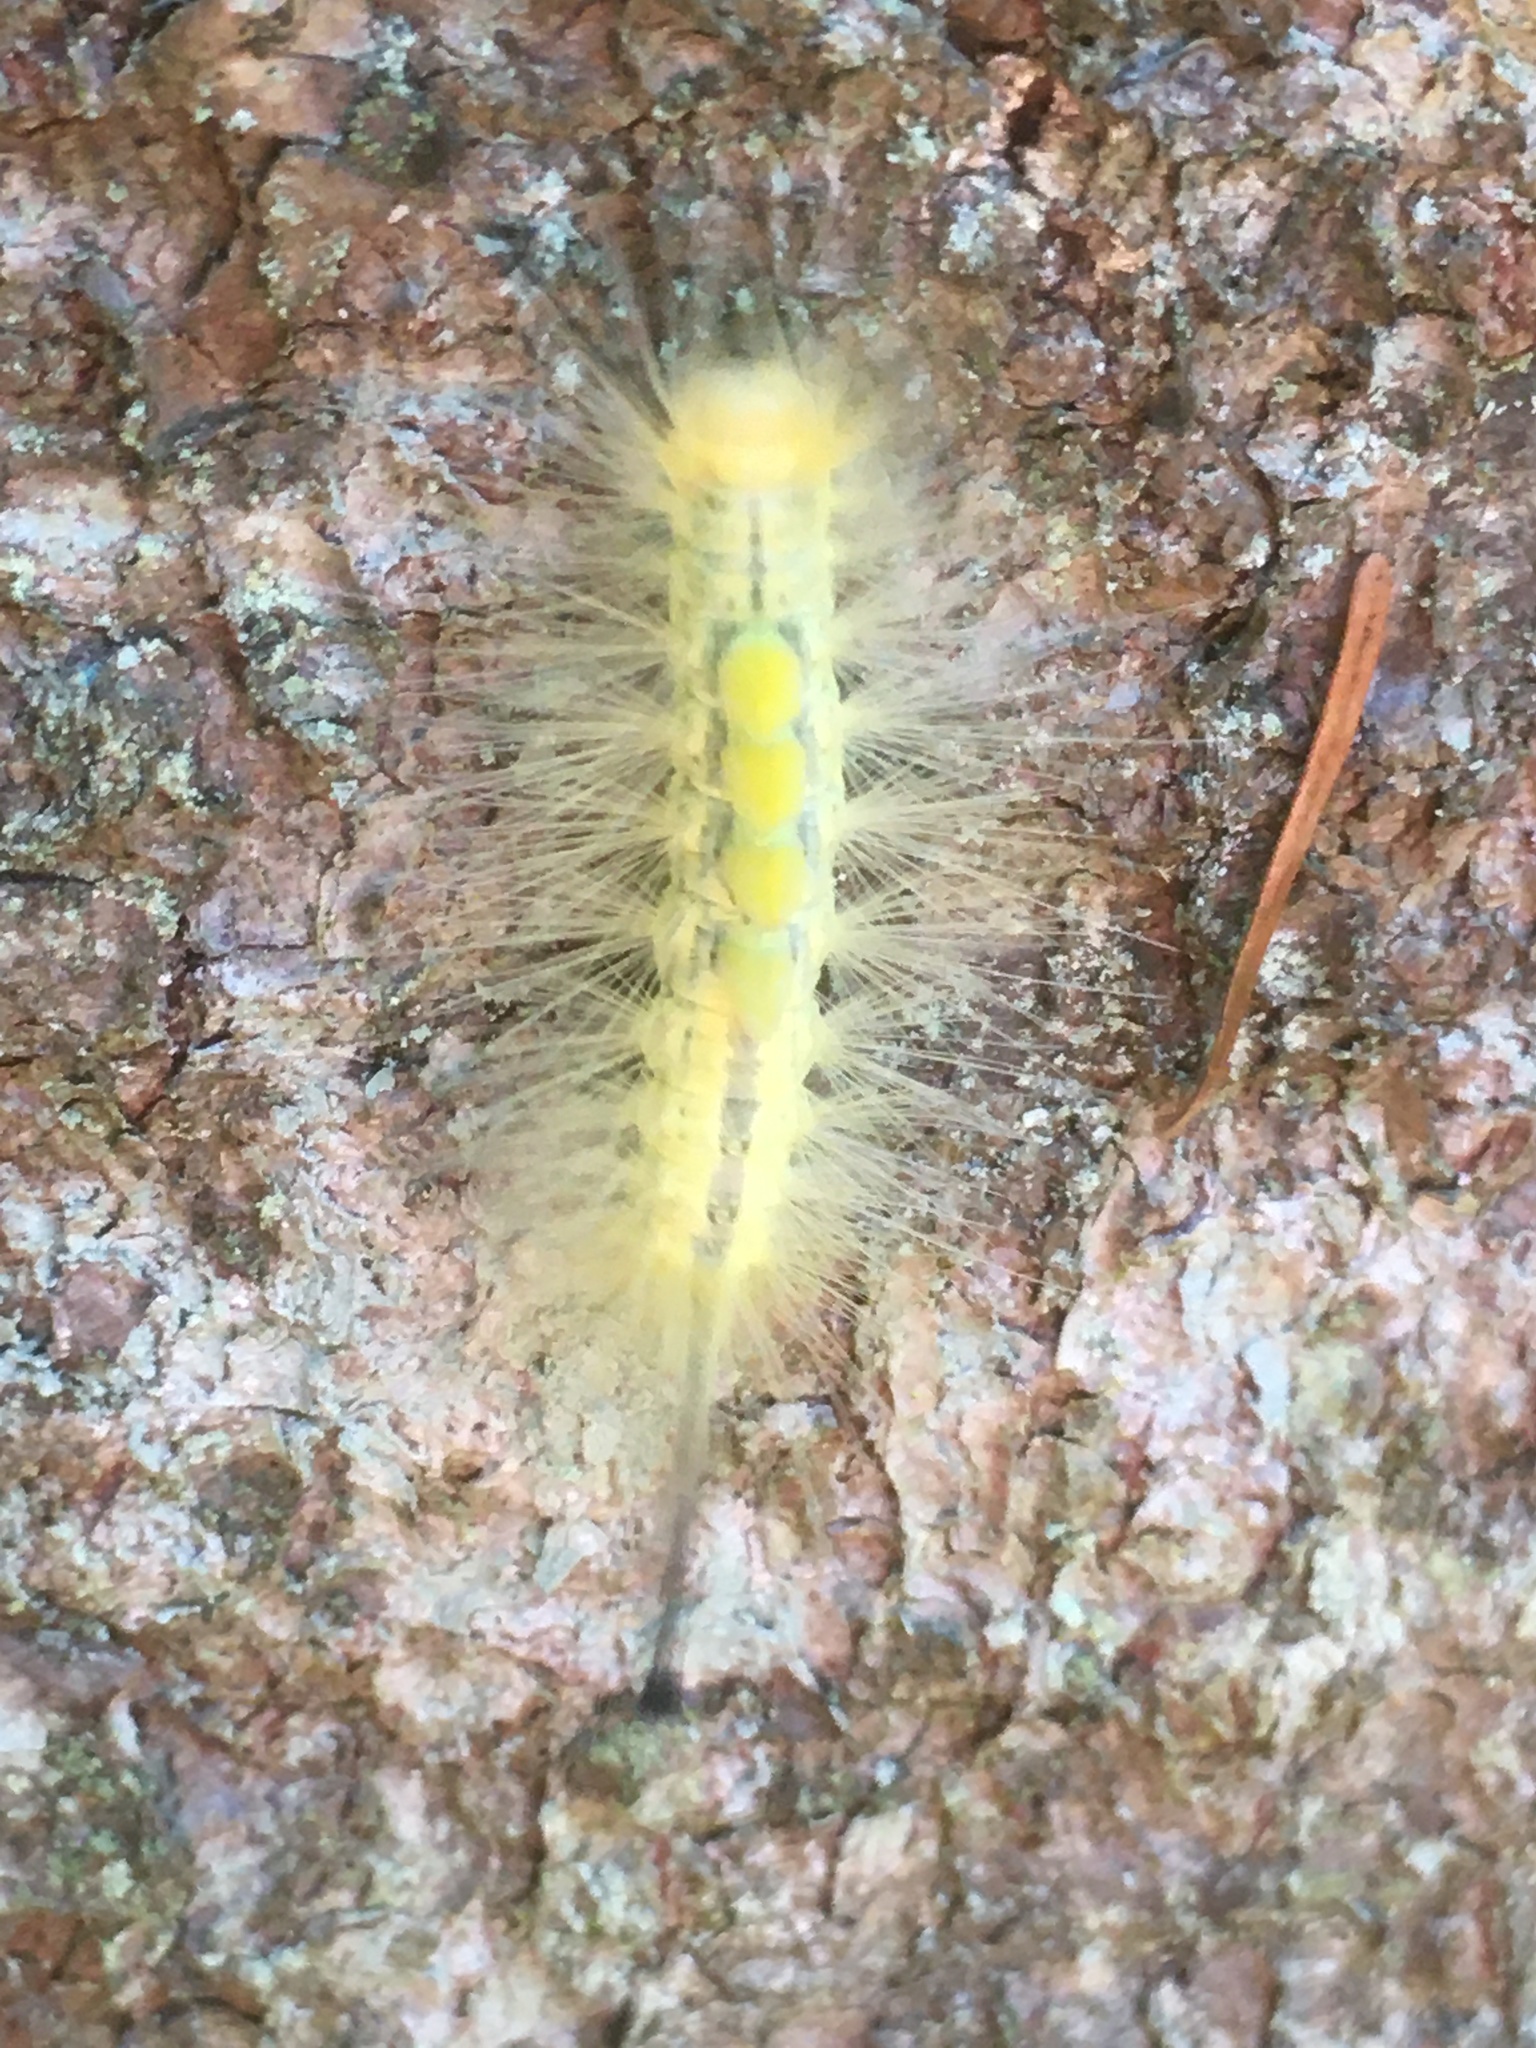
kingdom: Animalia
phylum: Arthropoda
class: Insecta
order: Lepidoptera
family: Erebidae
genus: Orgyia
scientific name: Orgyia definita
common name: Definite tussock moth
